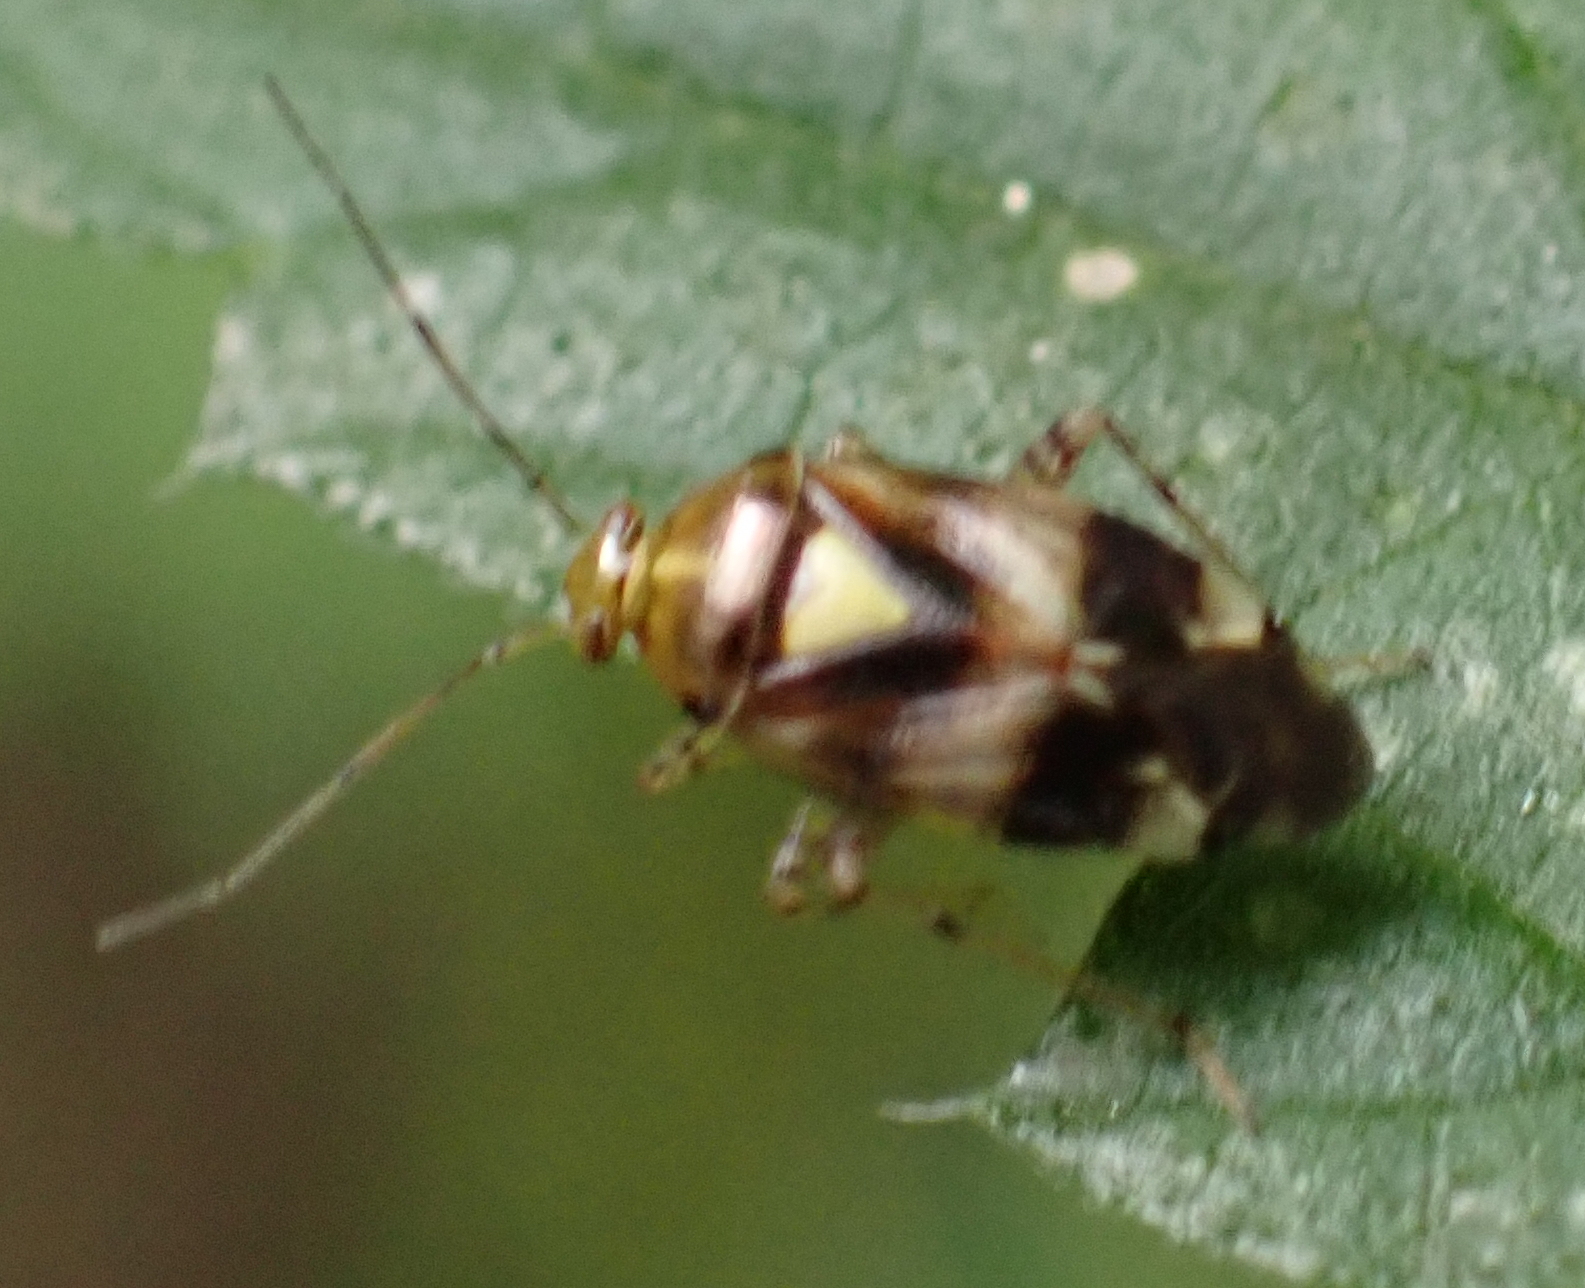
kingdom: Animalia
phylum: Arthropoda
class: Insecta
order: Hemiptera
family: Miridae
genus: Liocoris
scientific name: Liocoris tripustulatus
